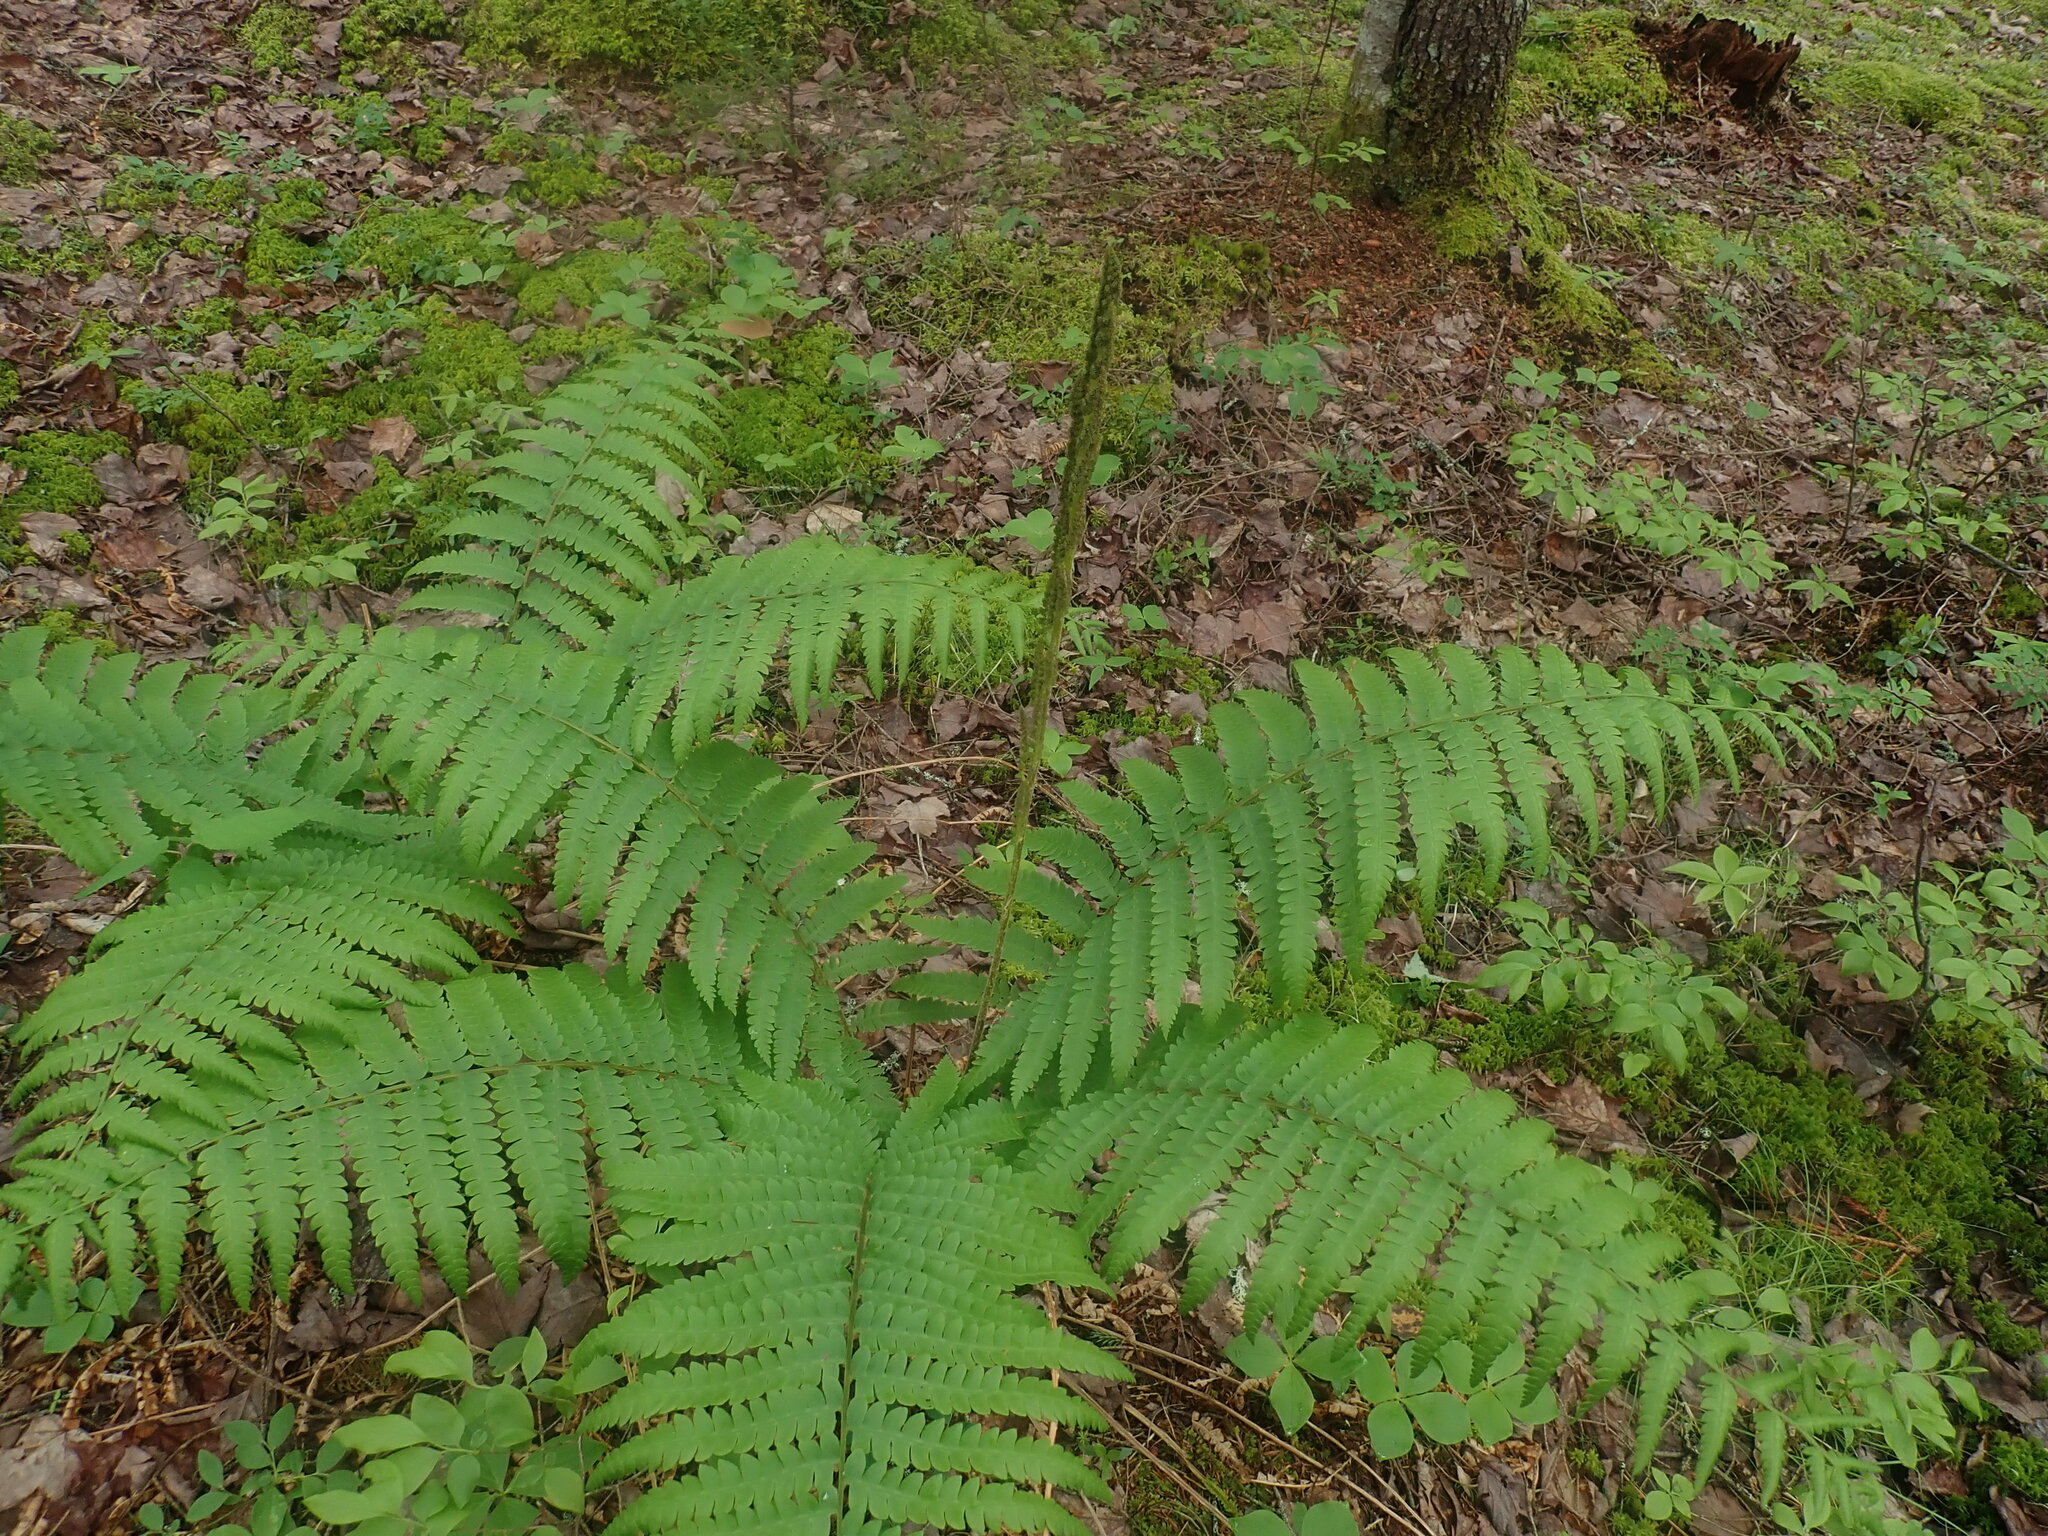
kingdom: Plantae
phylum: Tracheophyta
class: Polypodiopsida
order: Osmundales
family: Osmundaceae
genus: Osmundastrum
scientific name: Osmundastrum cinnamomeum
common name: Cinnamon fern
